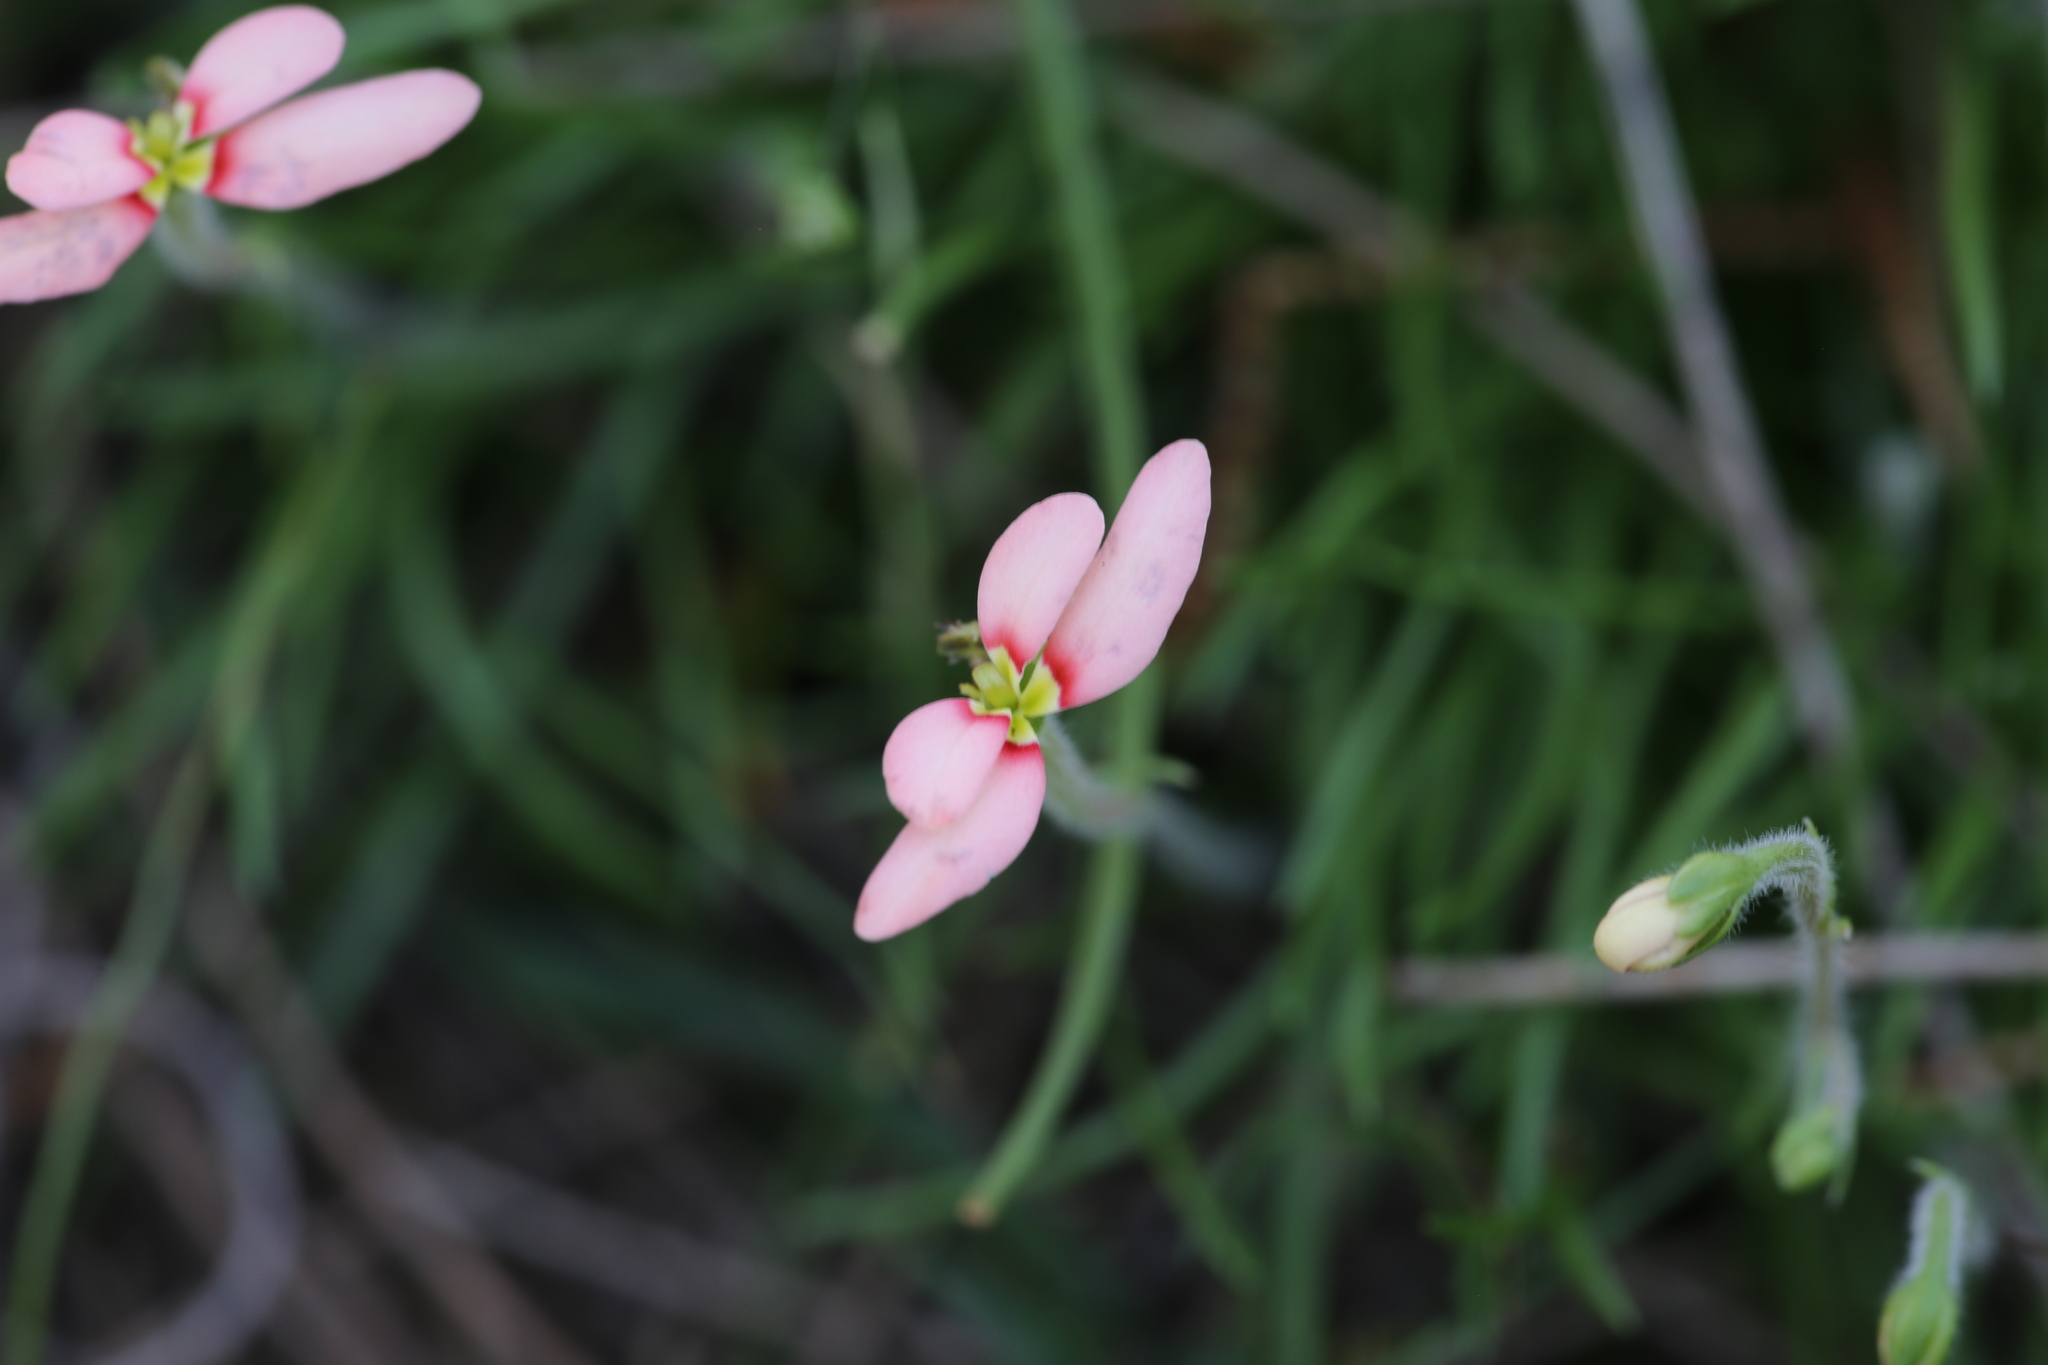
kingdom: Plantae
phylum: Tracheophyta
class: Magnoliopsida
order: Asterales
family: Stylidiaceae
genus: Stylidium
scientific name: Stylidium uniflorum
